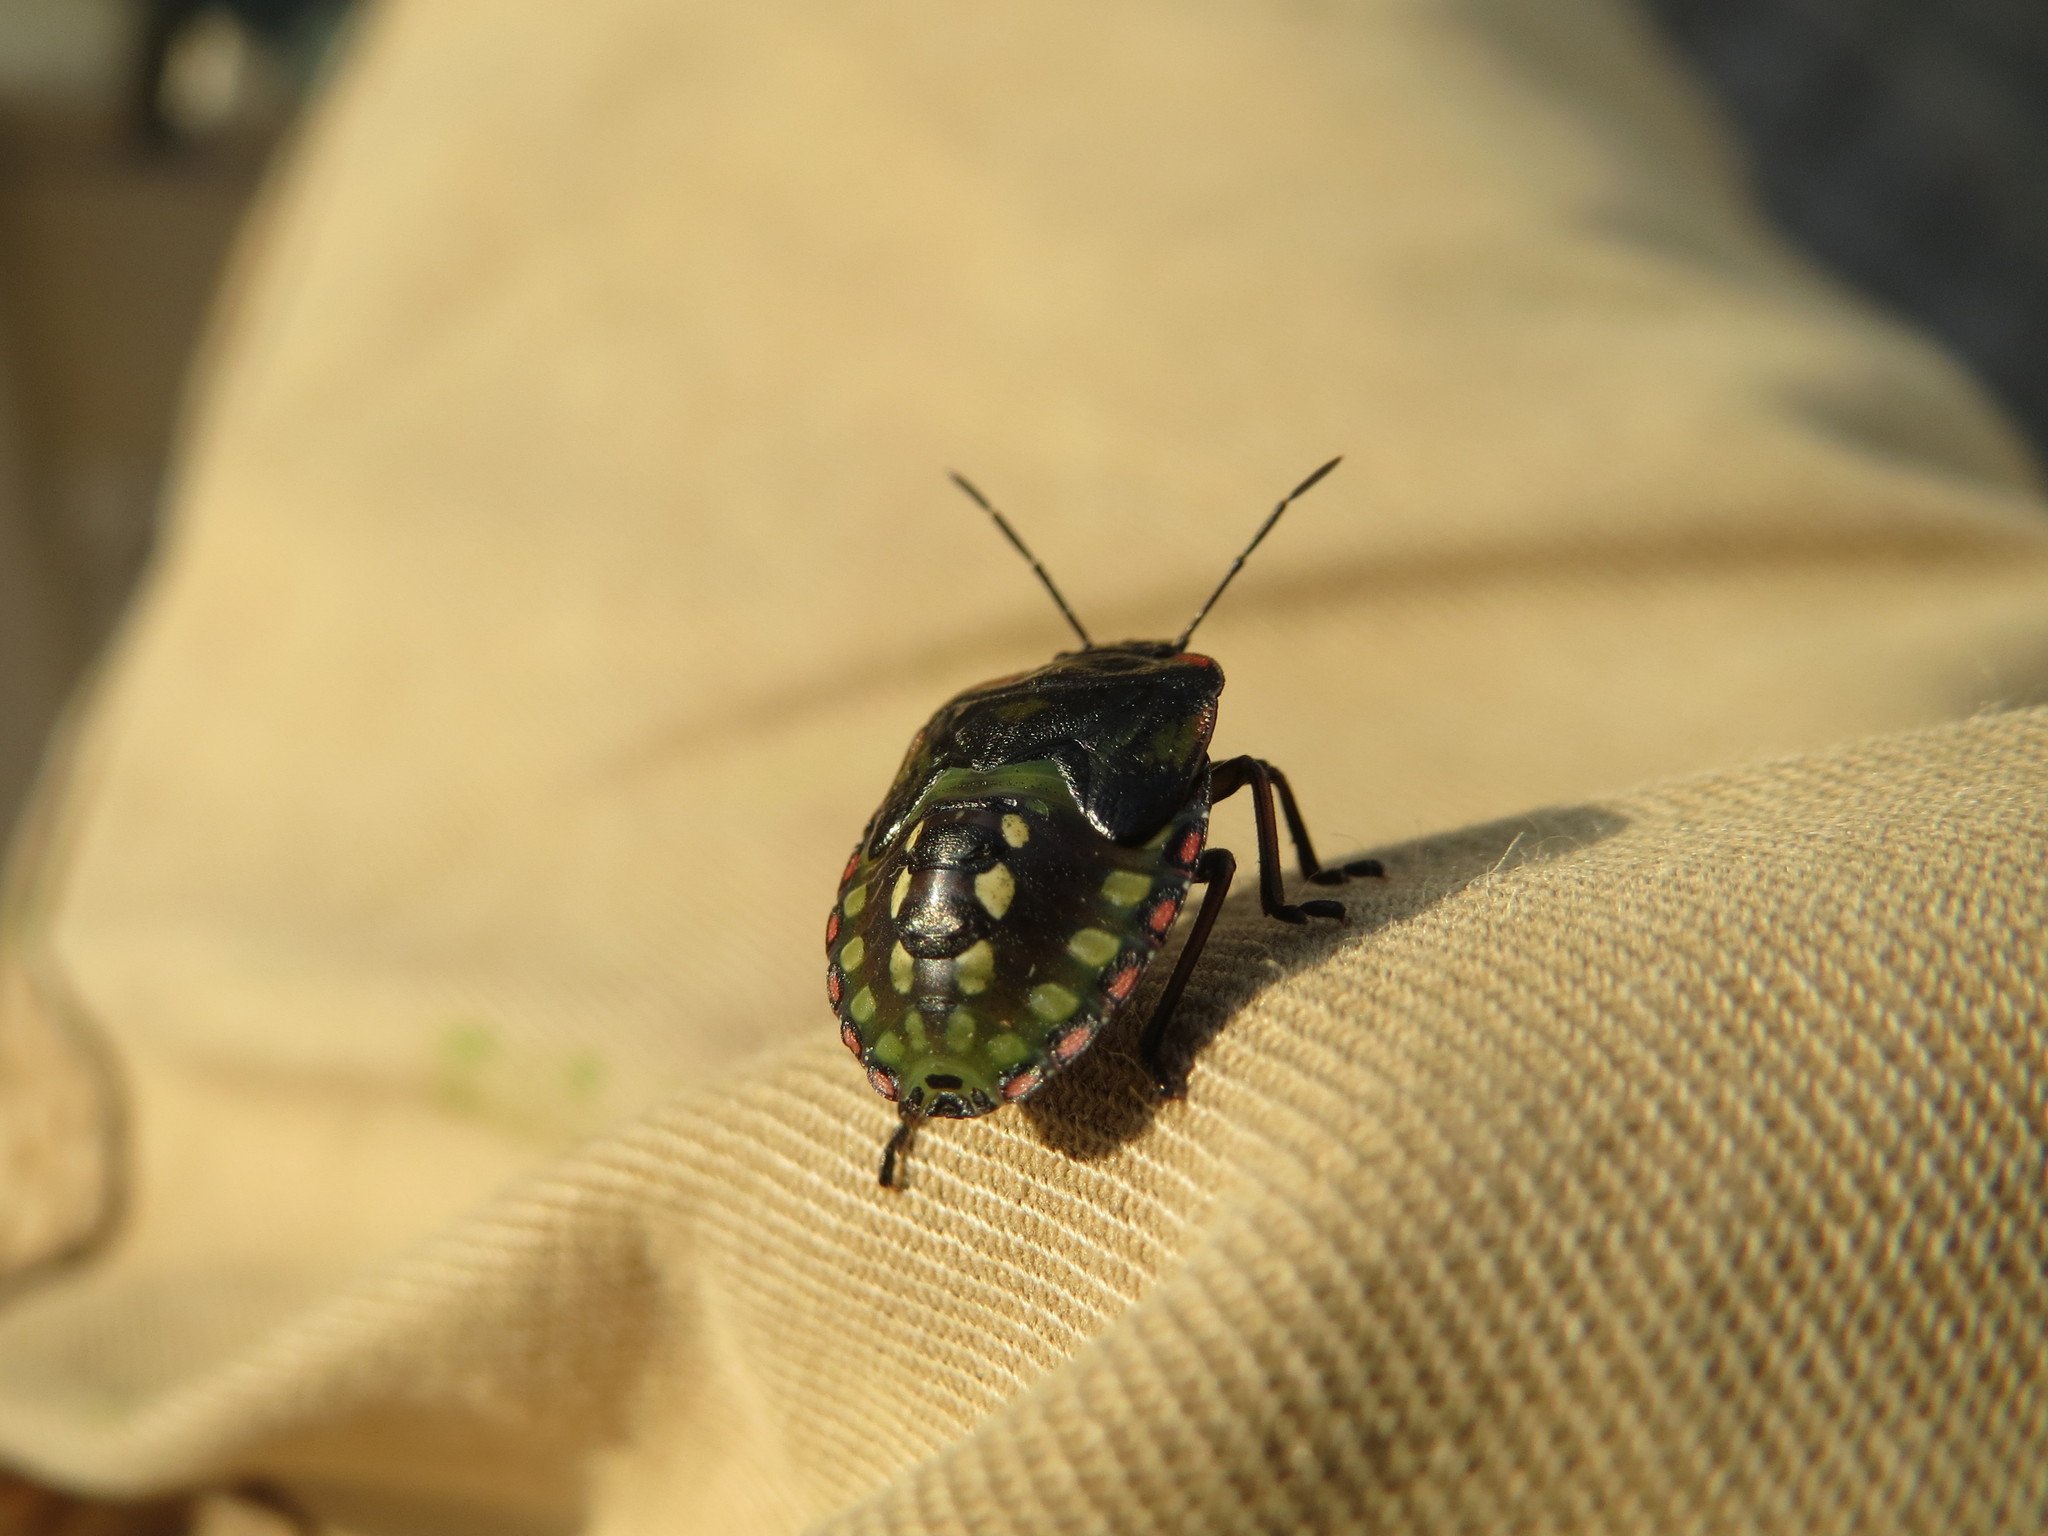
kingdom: Animalia
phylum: Arthropoda
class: Insecta
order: Hemiptera
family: Pentatomidae
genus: Nezara
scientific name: Nezara viridula
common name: Southern green stink bug
